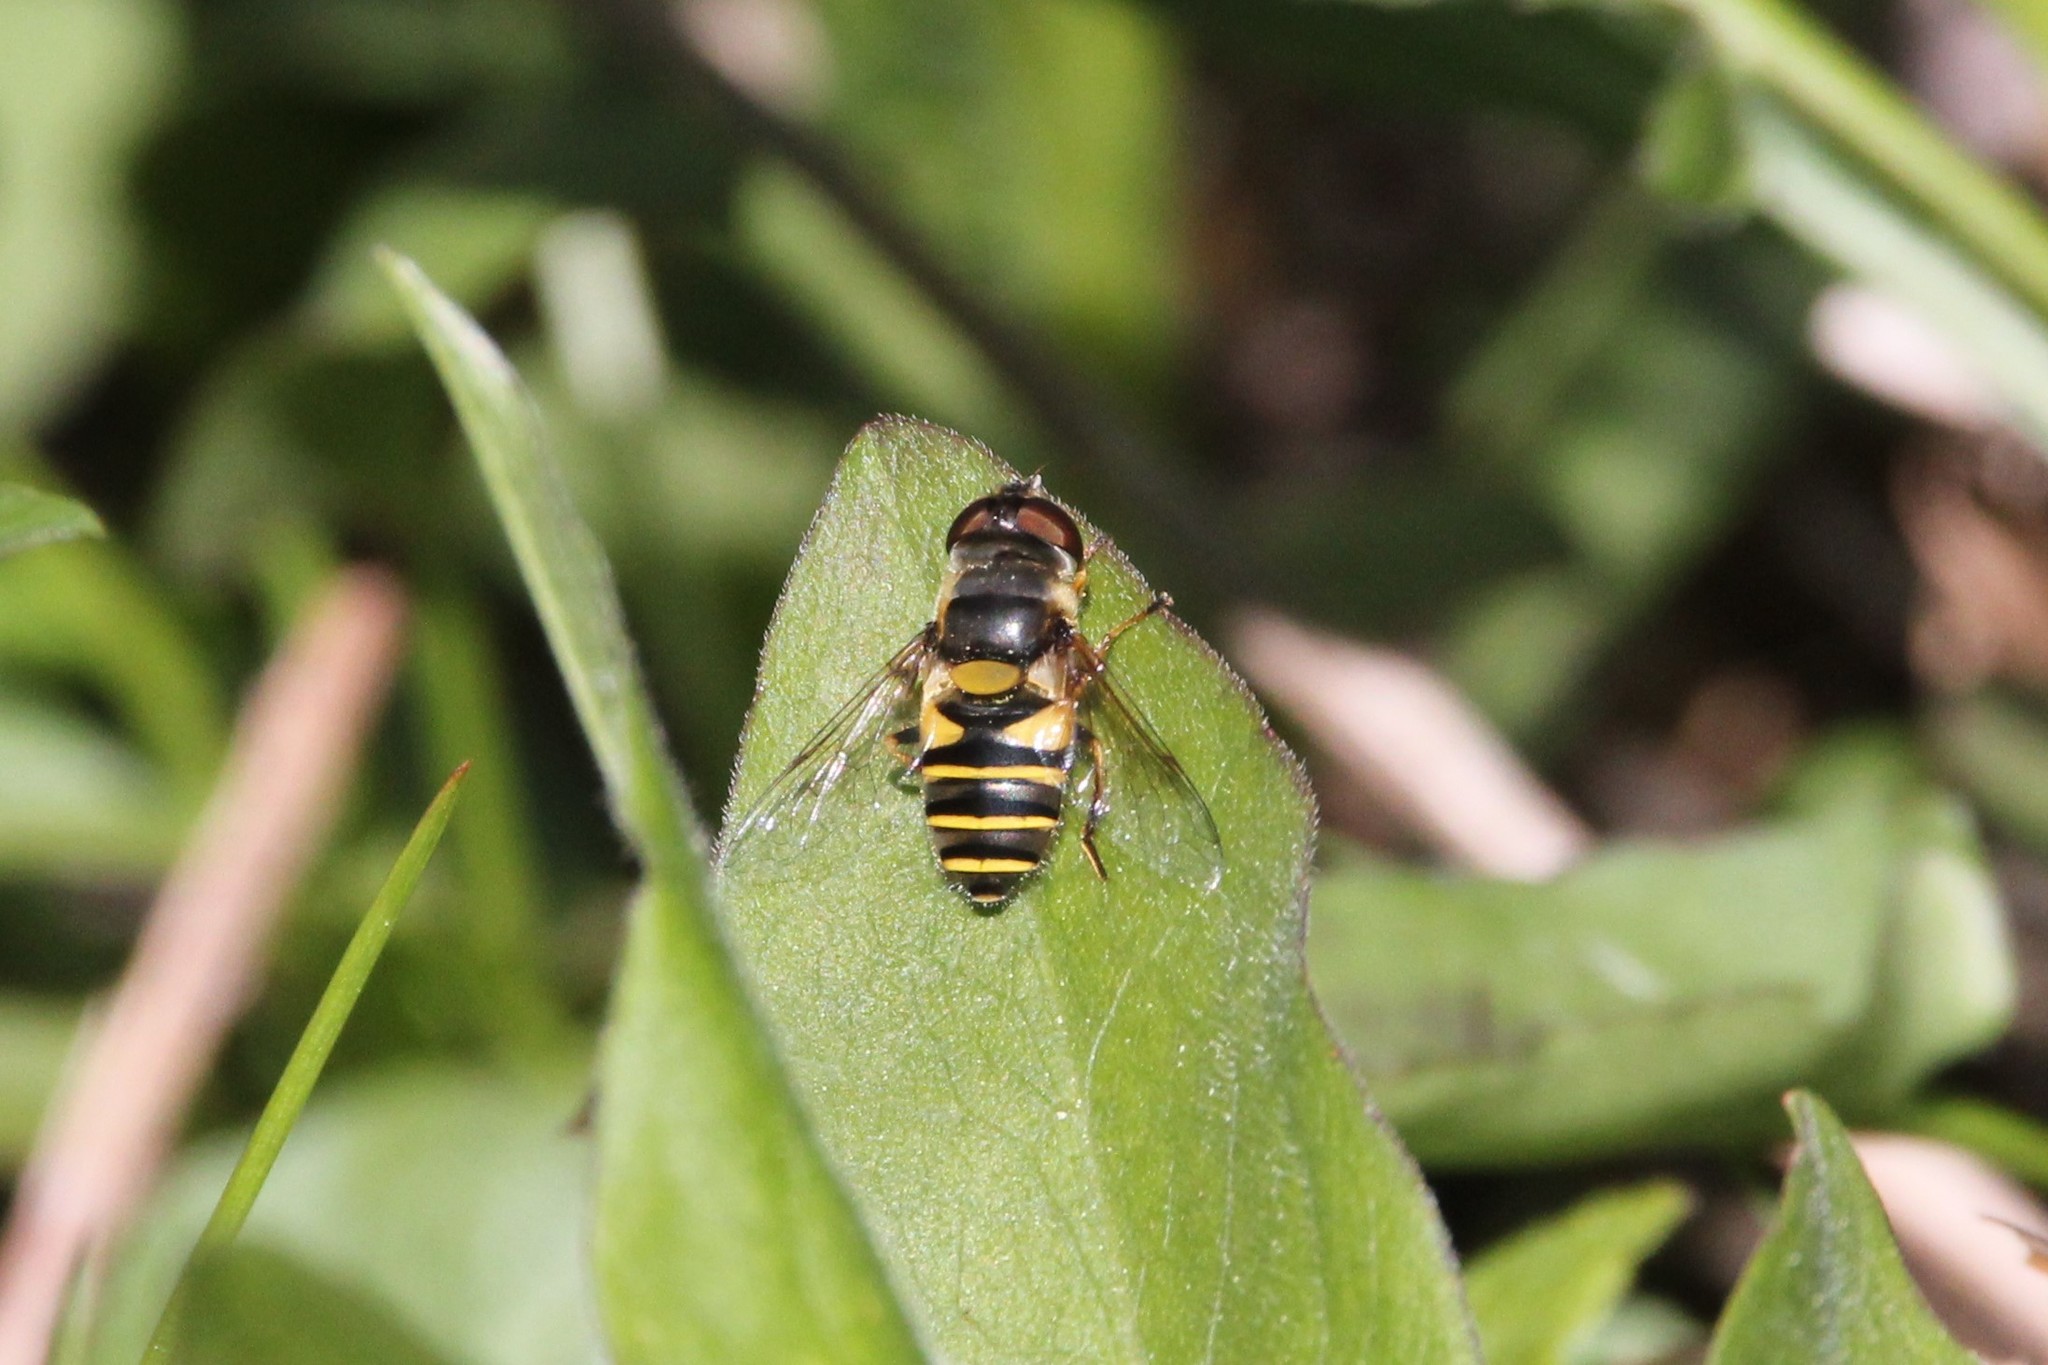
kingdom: Animalia
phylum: Arthropoda
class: Insecta
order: Diptera
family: Syrphidae
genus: Eristalis
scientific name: Eristalis transversa
